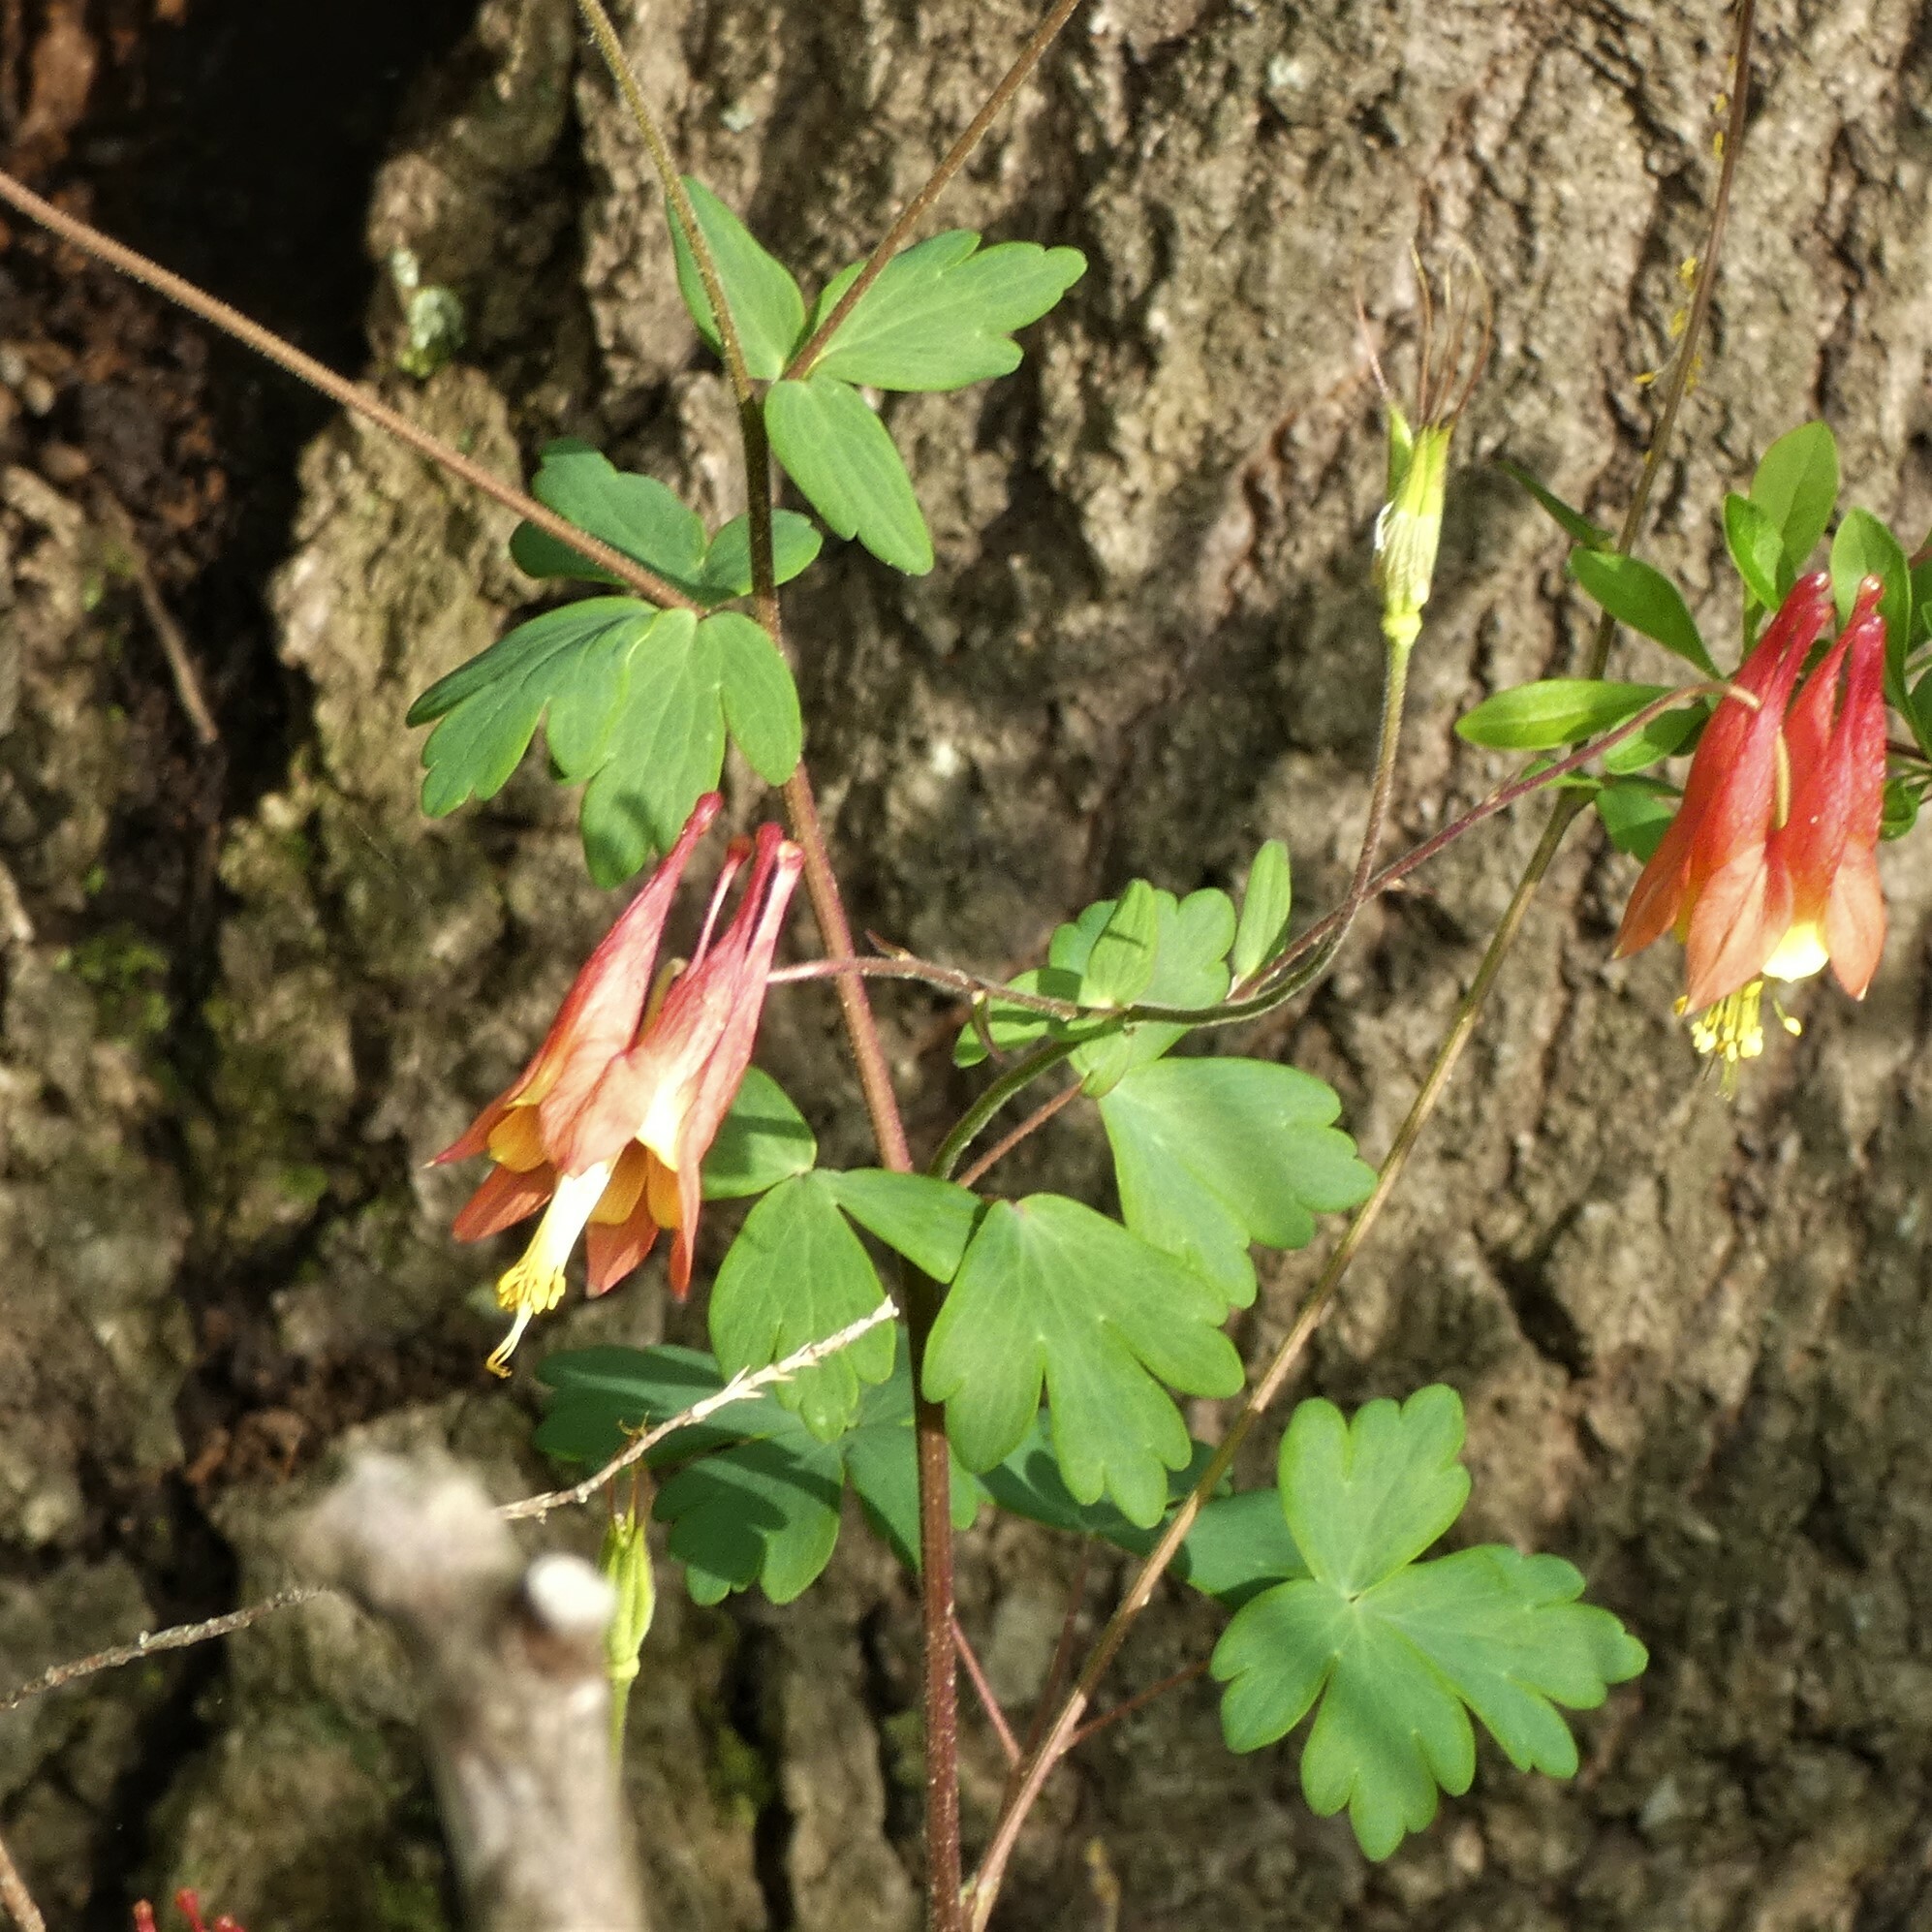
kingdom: Plantae
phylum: Tracheophyta
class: Magnoliopsida
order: Ranunculales
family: Ranunculaceae
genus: Aquilegia
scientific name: Aquilegia canadensis
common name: American columbine
